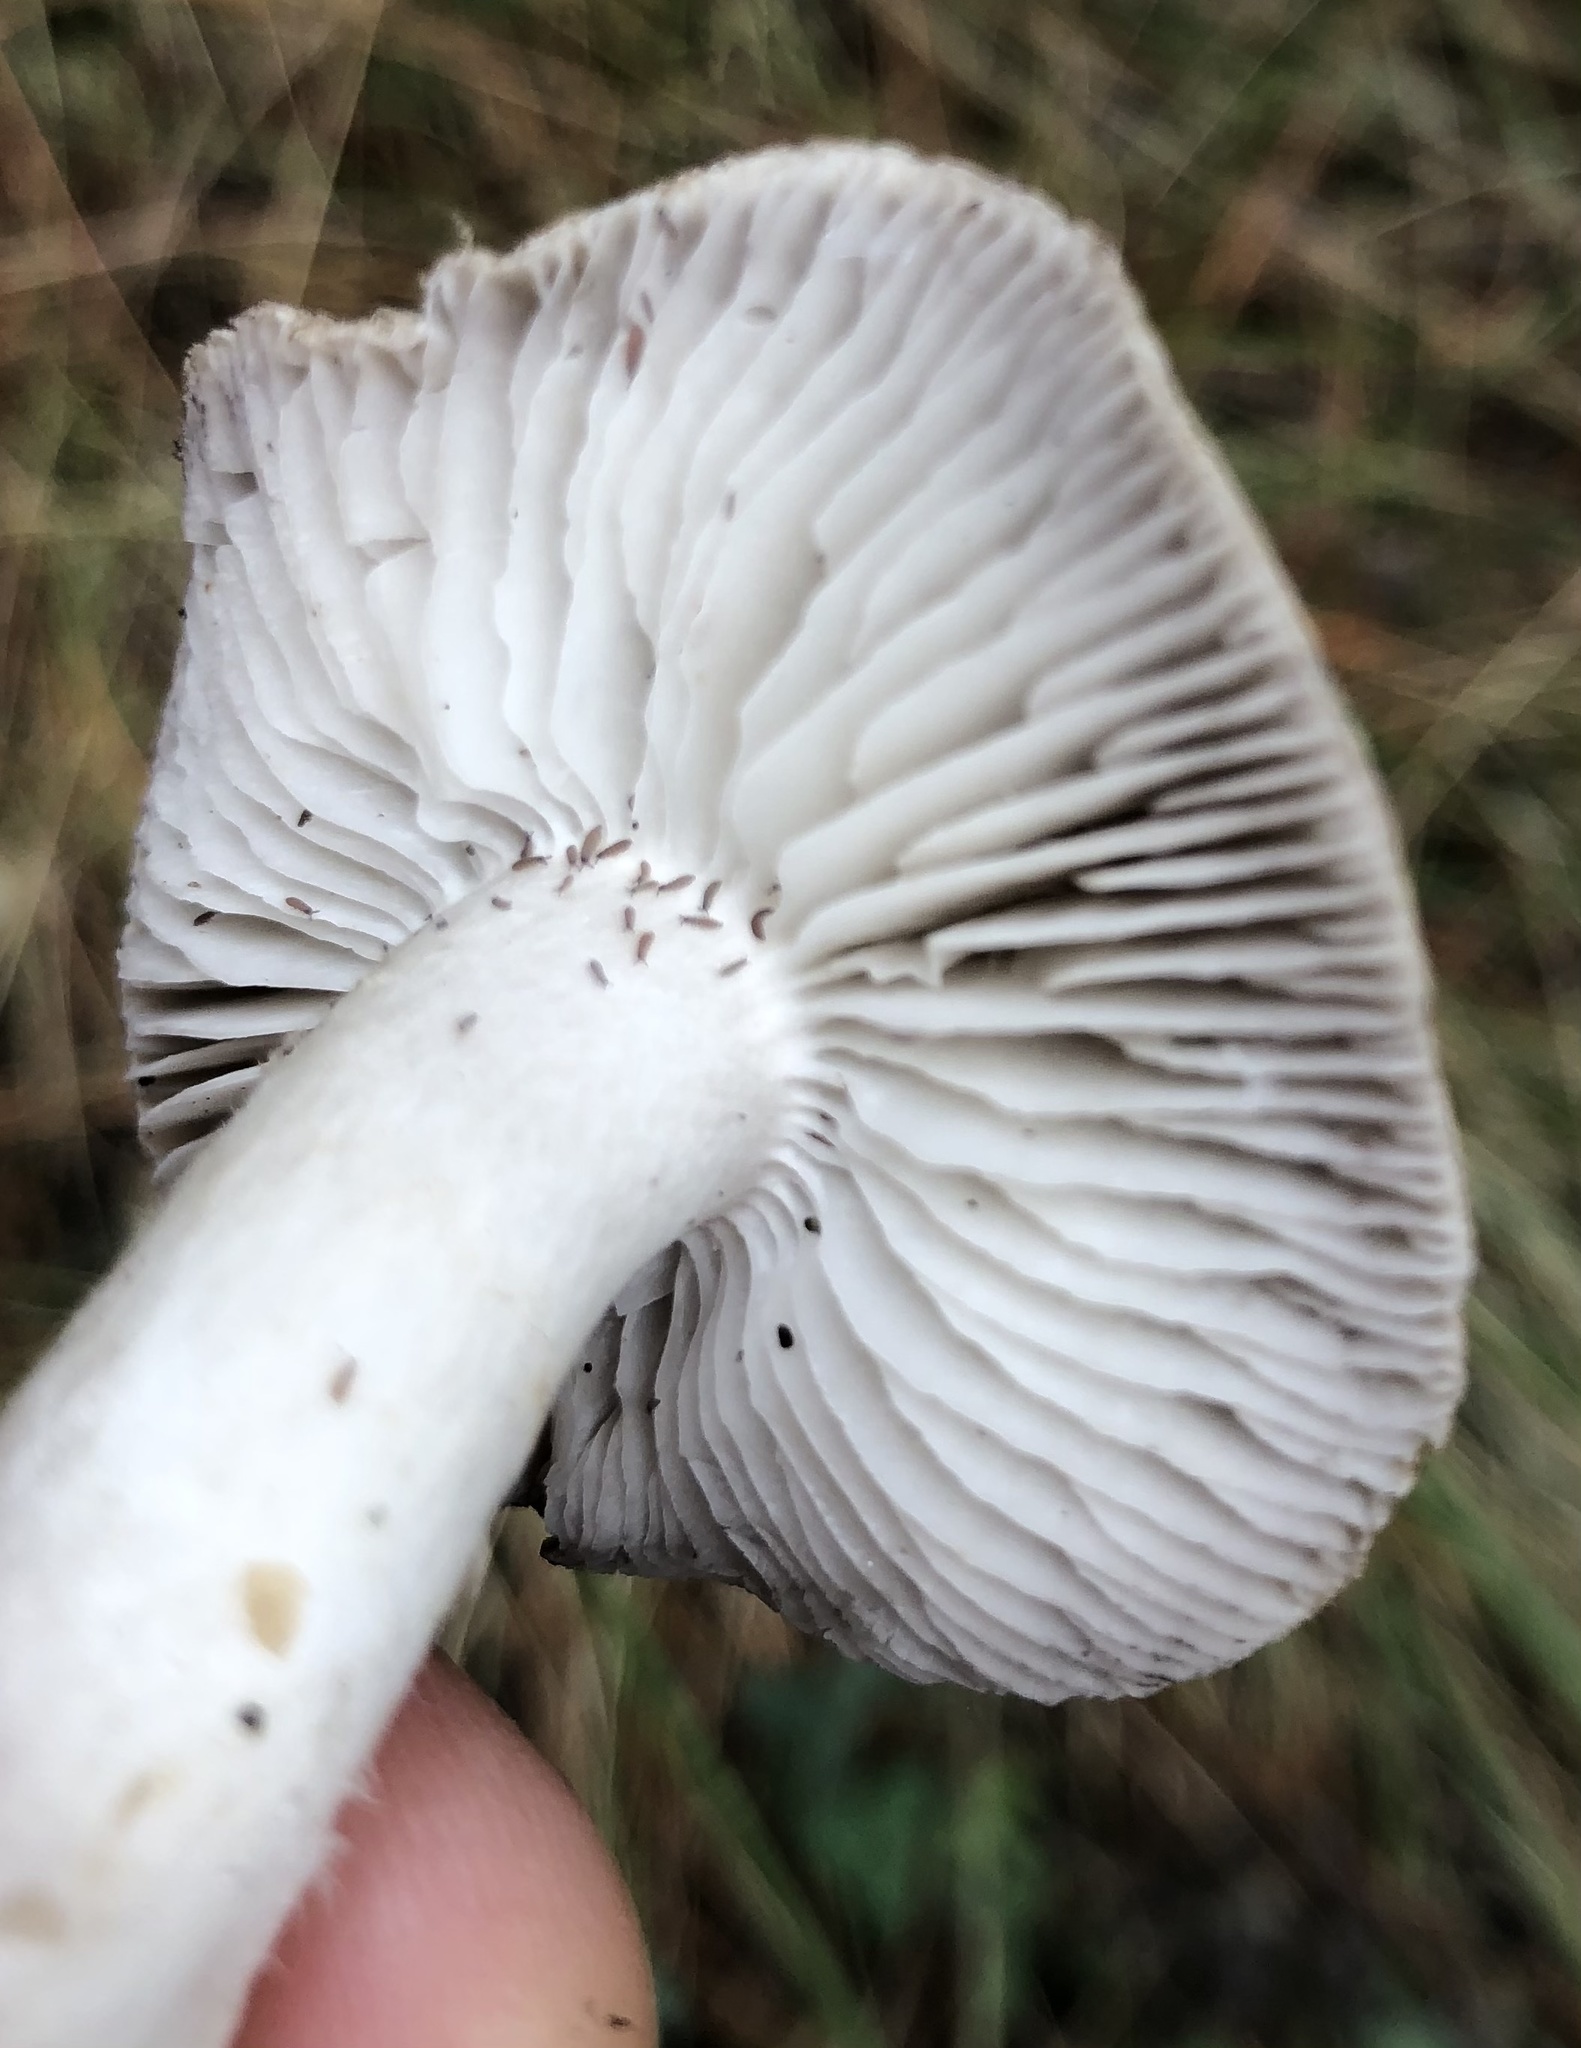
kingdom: Fungi
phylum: Basidiomycota
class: Agaricomycetes
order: Agaricales
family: Tricholomataceae
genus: Tricholoma
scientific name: Tricholoma terreum
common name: Grey knight
